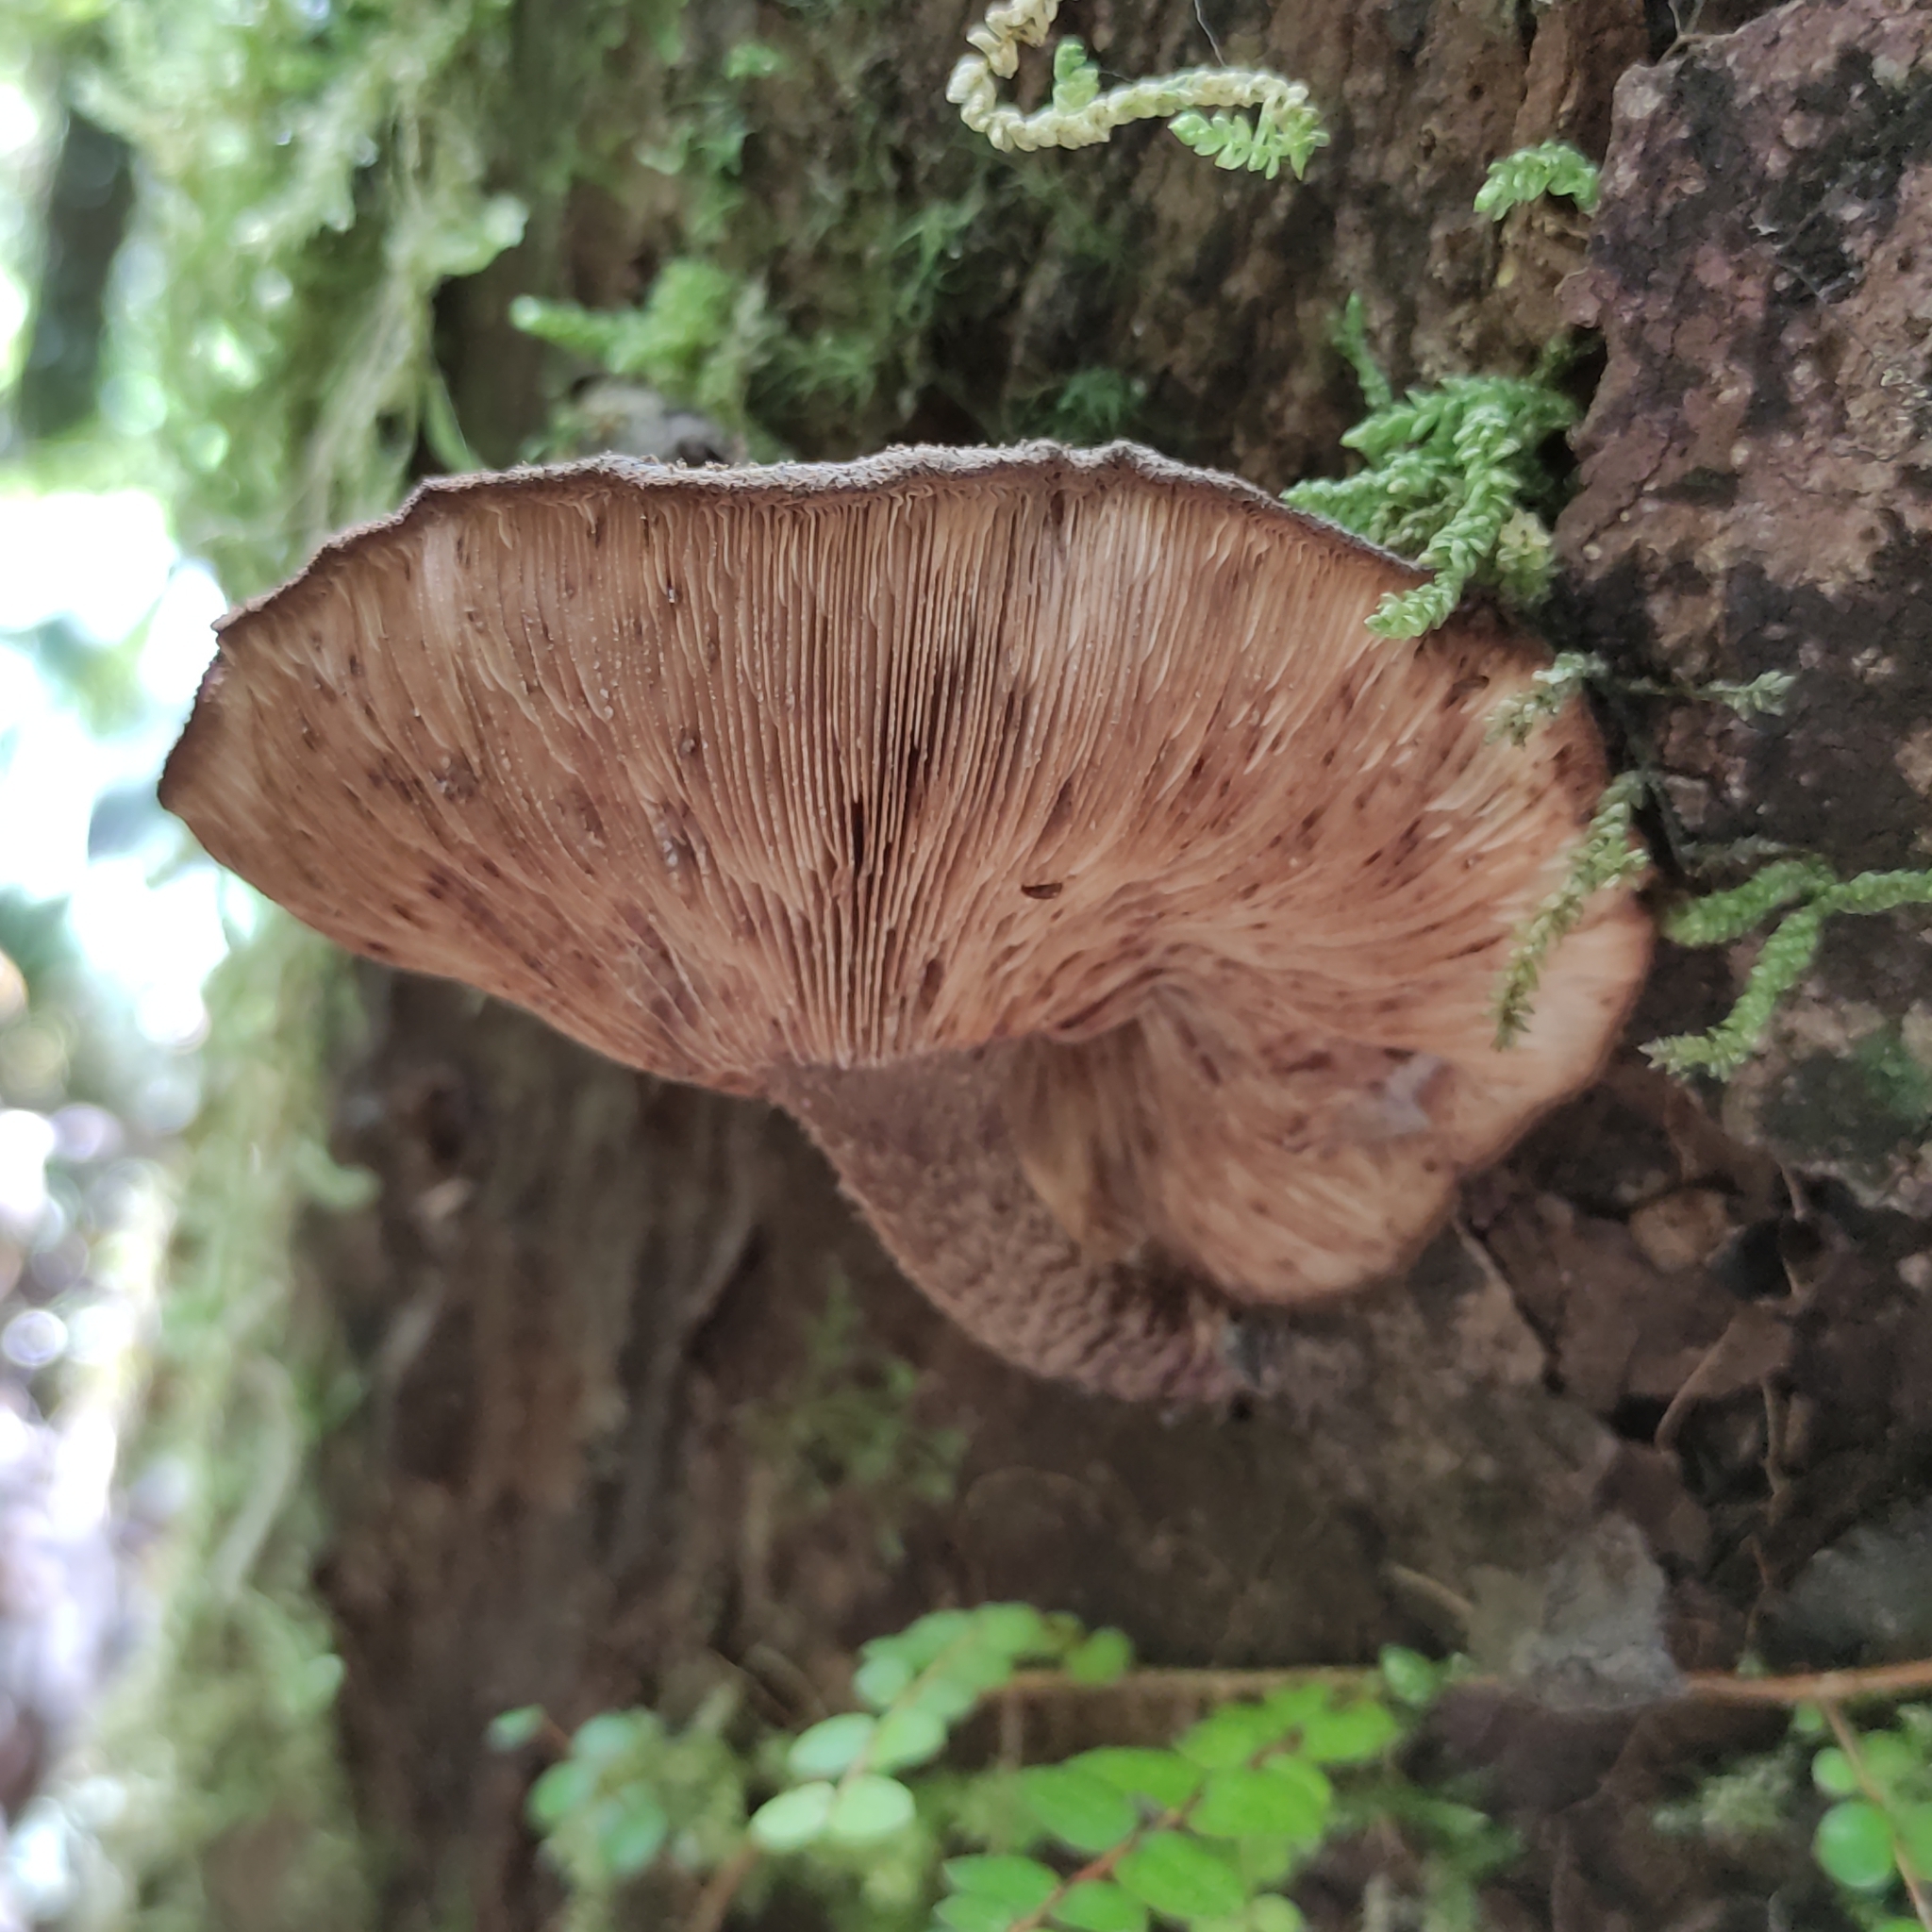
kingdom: Fungi
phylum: Basidiomycota
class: Agaricomycetes
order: Agaricales
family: Omphalotaceae
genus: Lentinula
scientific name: Lentinula novae-zelandiae
